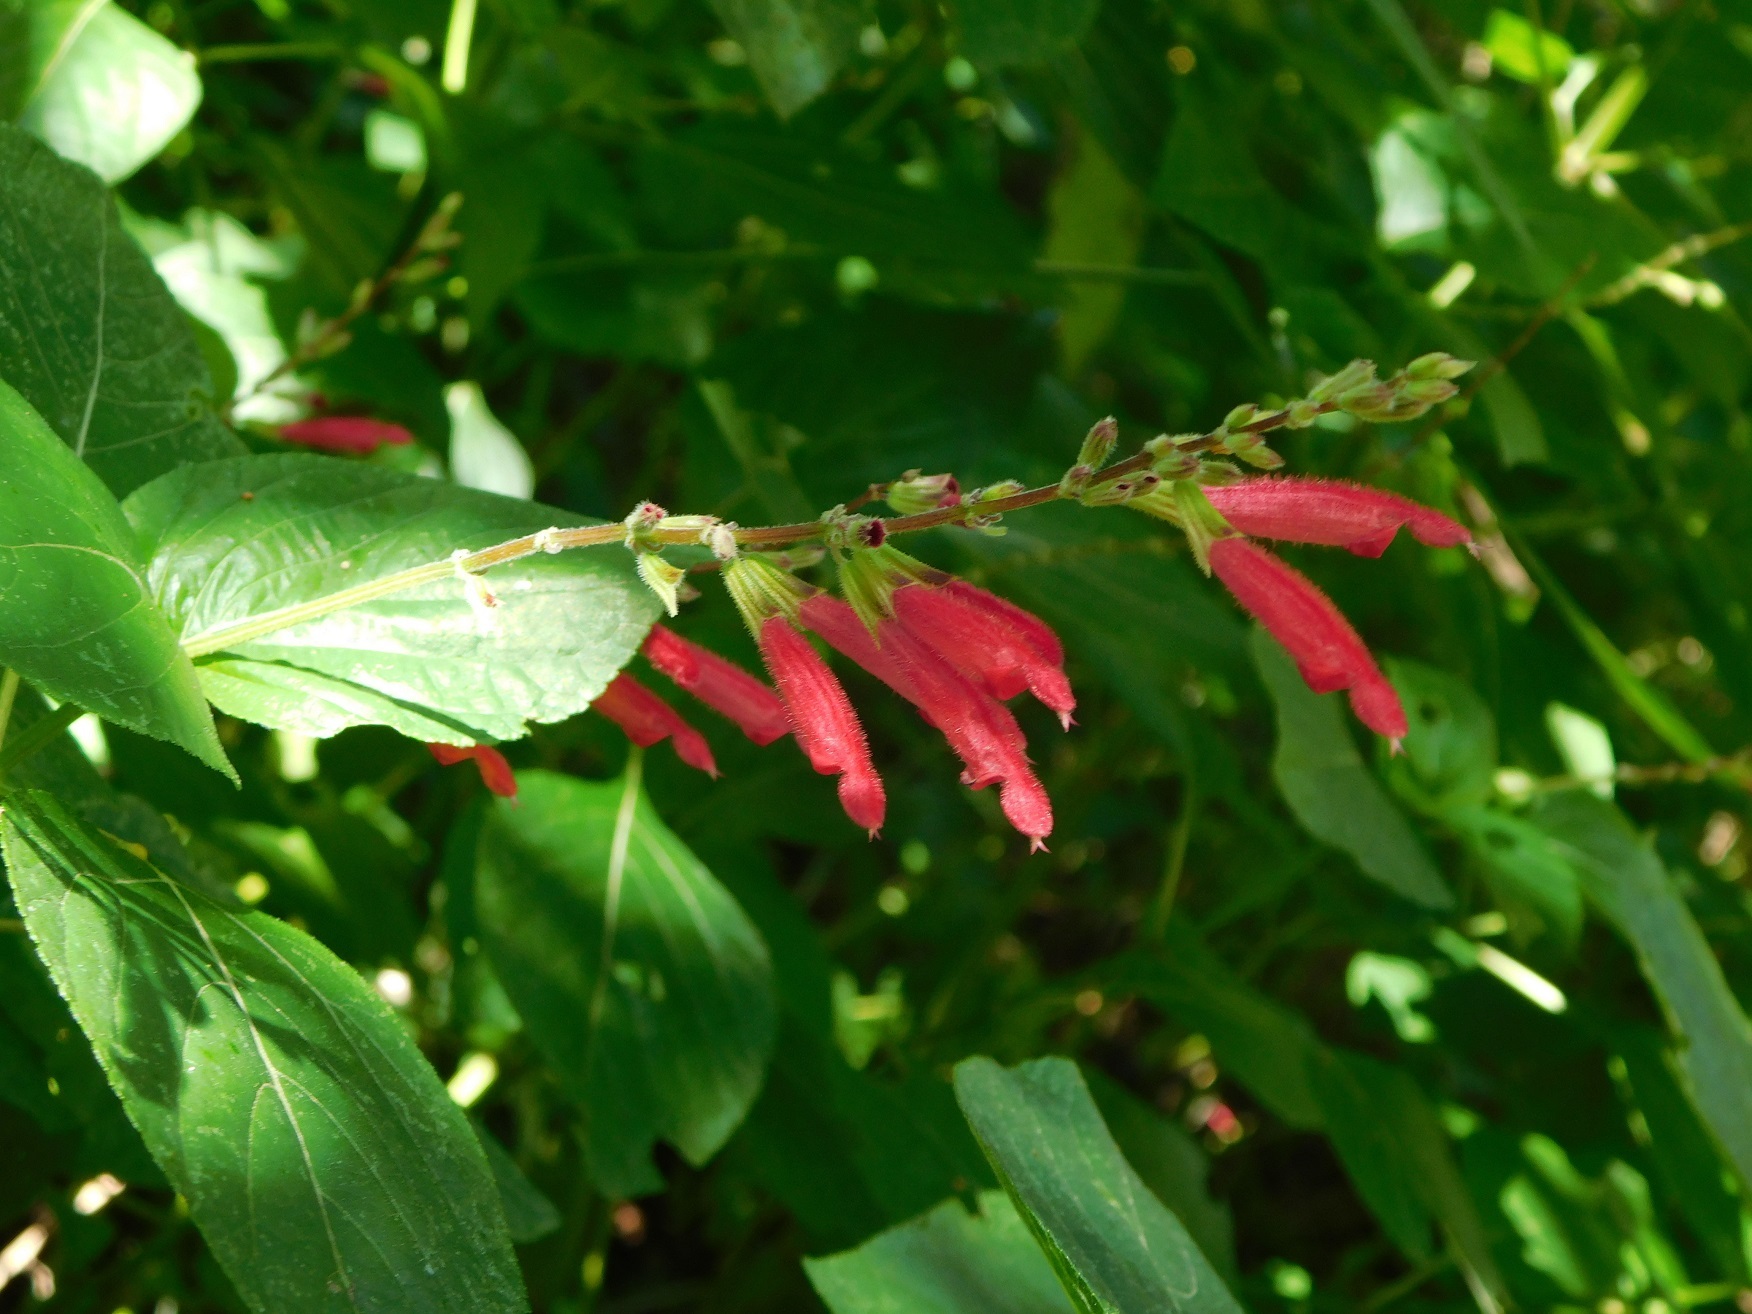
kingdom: Plantae
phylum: Tracheophyta
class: Magnoliopsida
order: Lamiales
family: Lamiaceae
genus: Salvia
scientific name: Salvia tubifera
